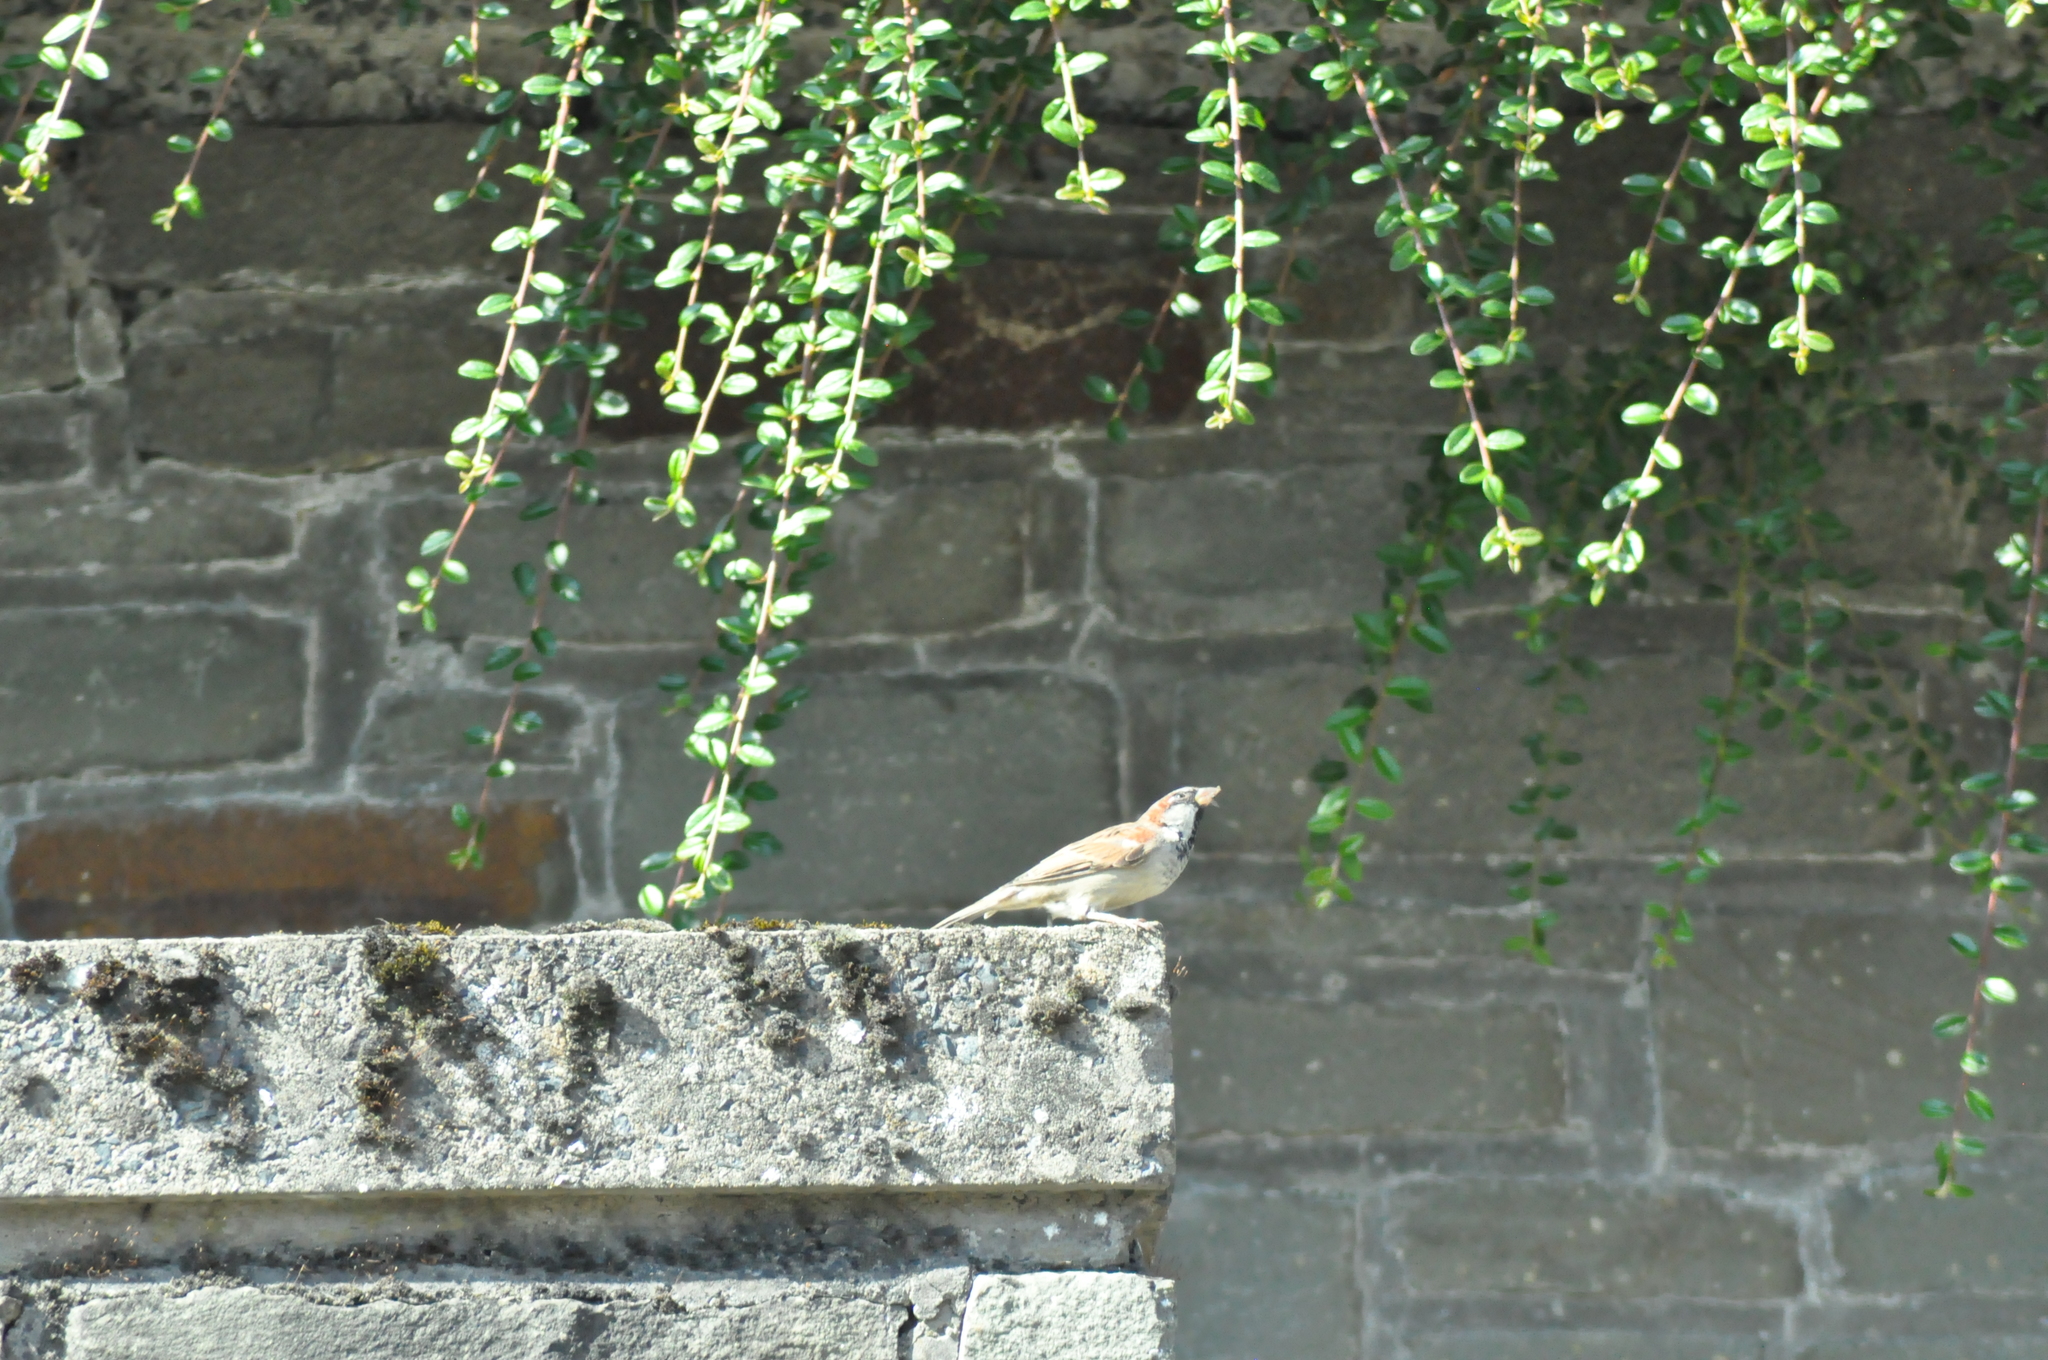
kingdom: Animalia
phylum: Chordata
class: Aves
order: Passeriformes
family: Passeridae
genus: Passer
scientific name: Passer domesticus
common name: House sparrow
